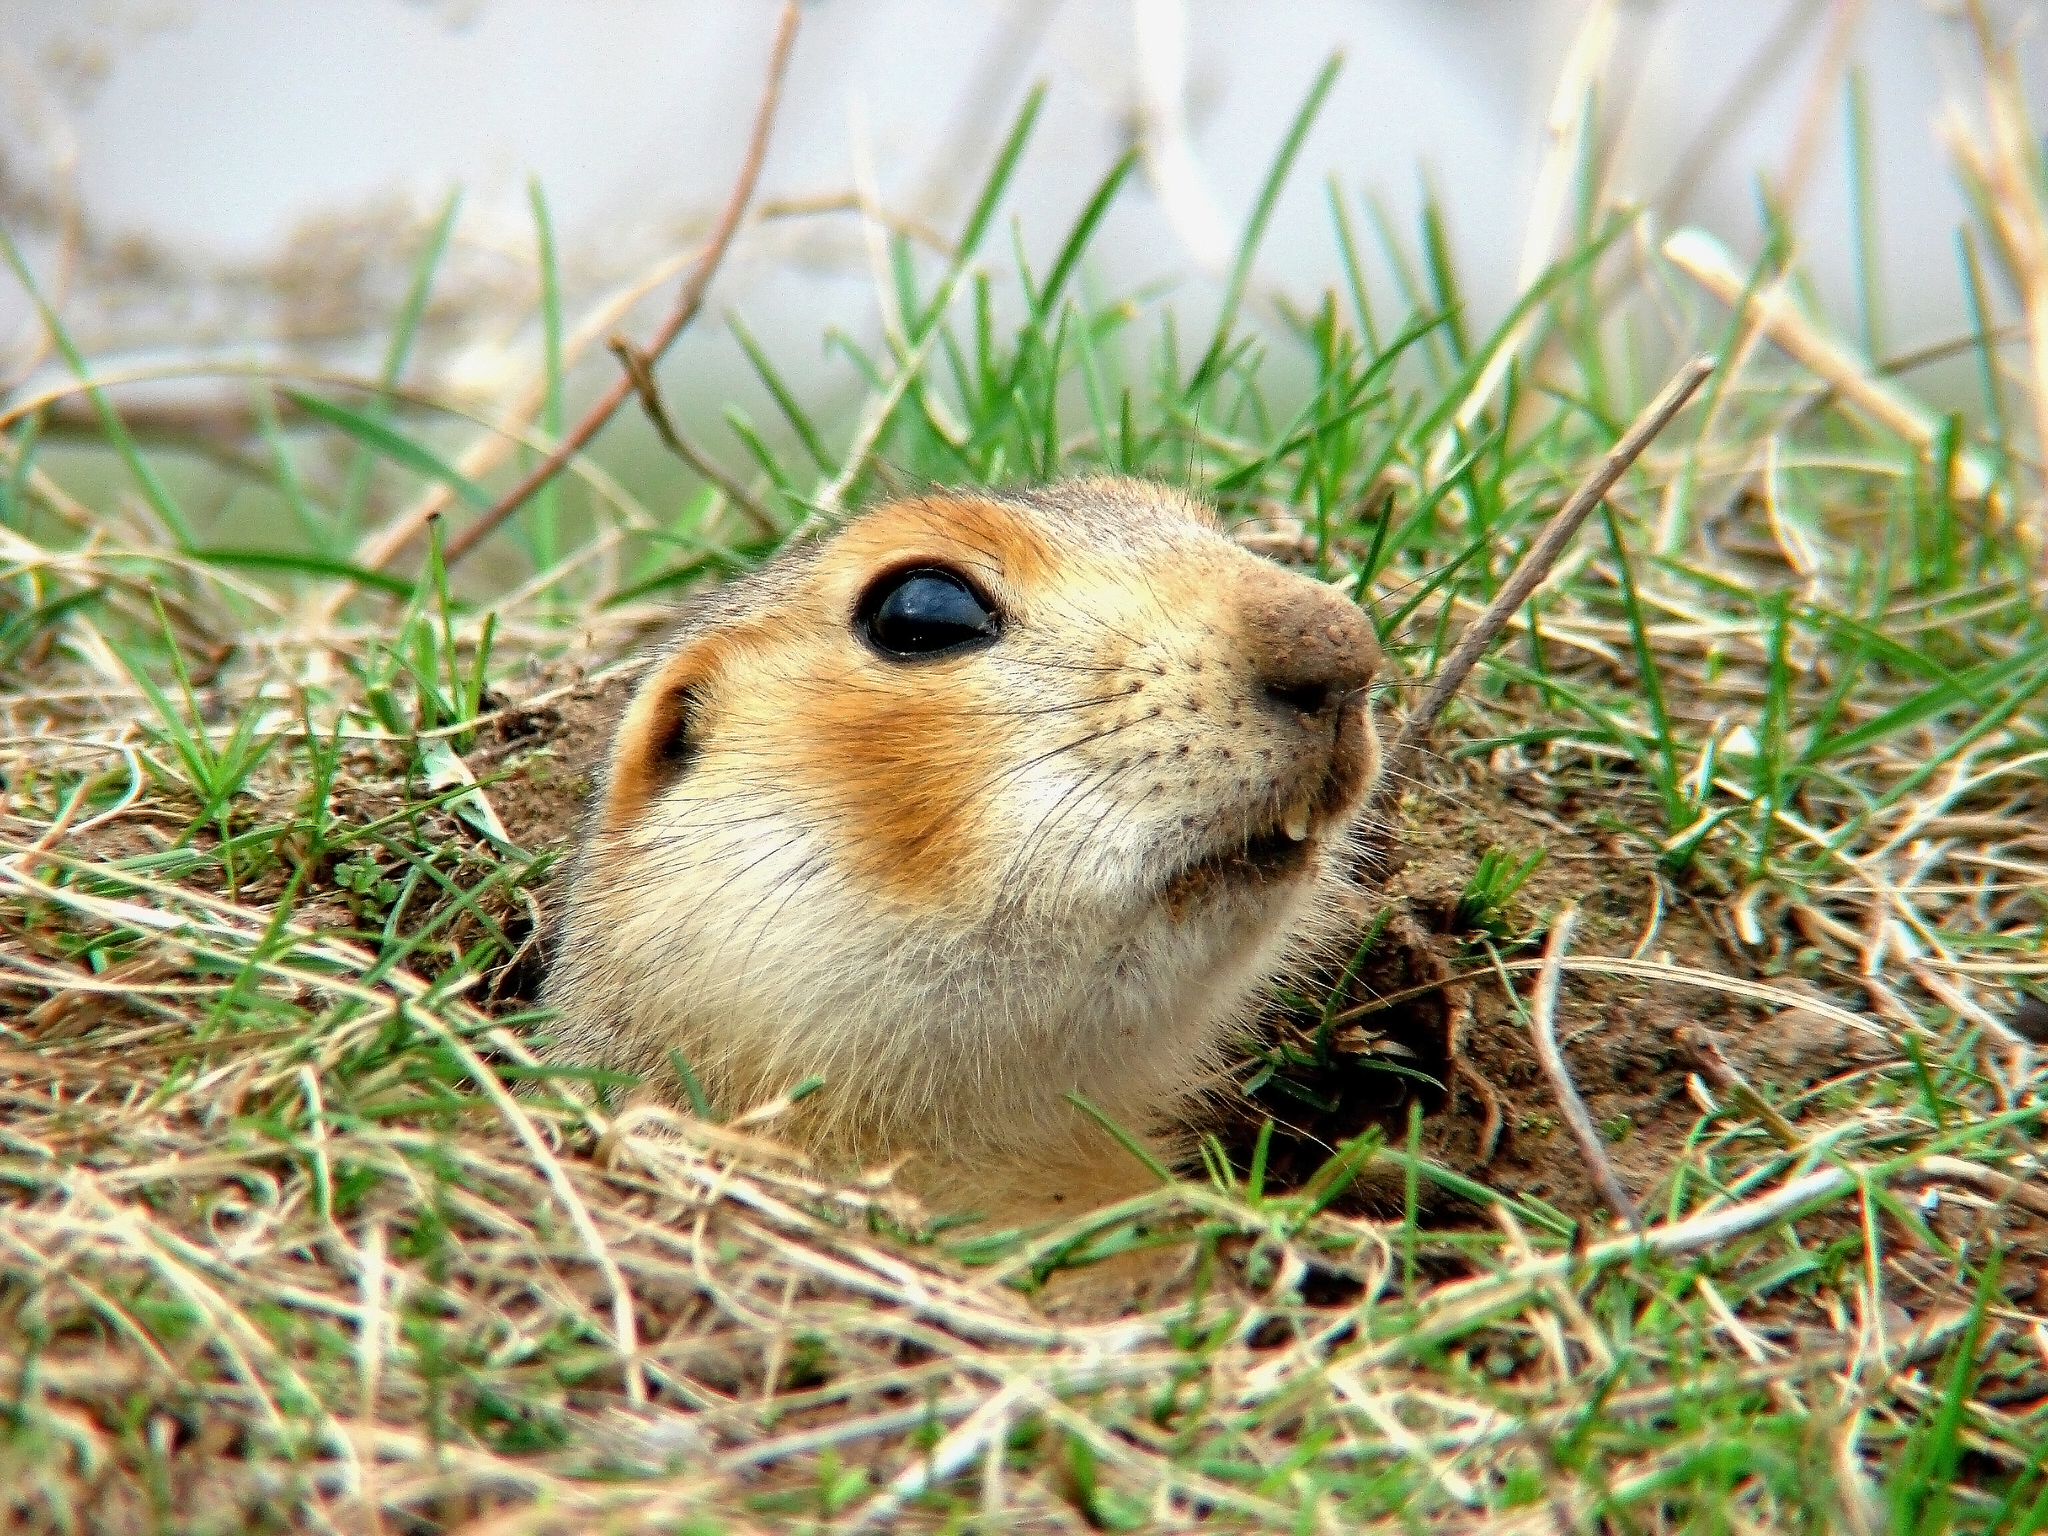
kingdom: Animalia
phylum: Chordata
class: Mammalia
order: Rodentia
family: Sciuridae
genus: Spermophilus
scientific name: Spermophilus major
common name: Russet ground squirrel
